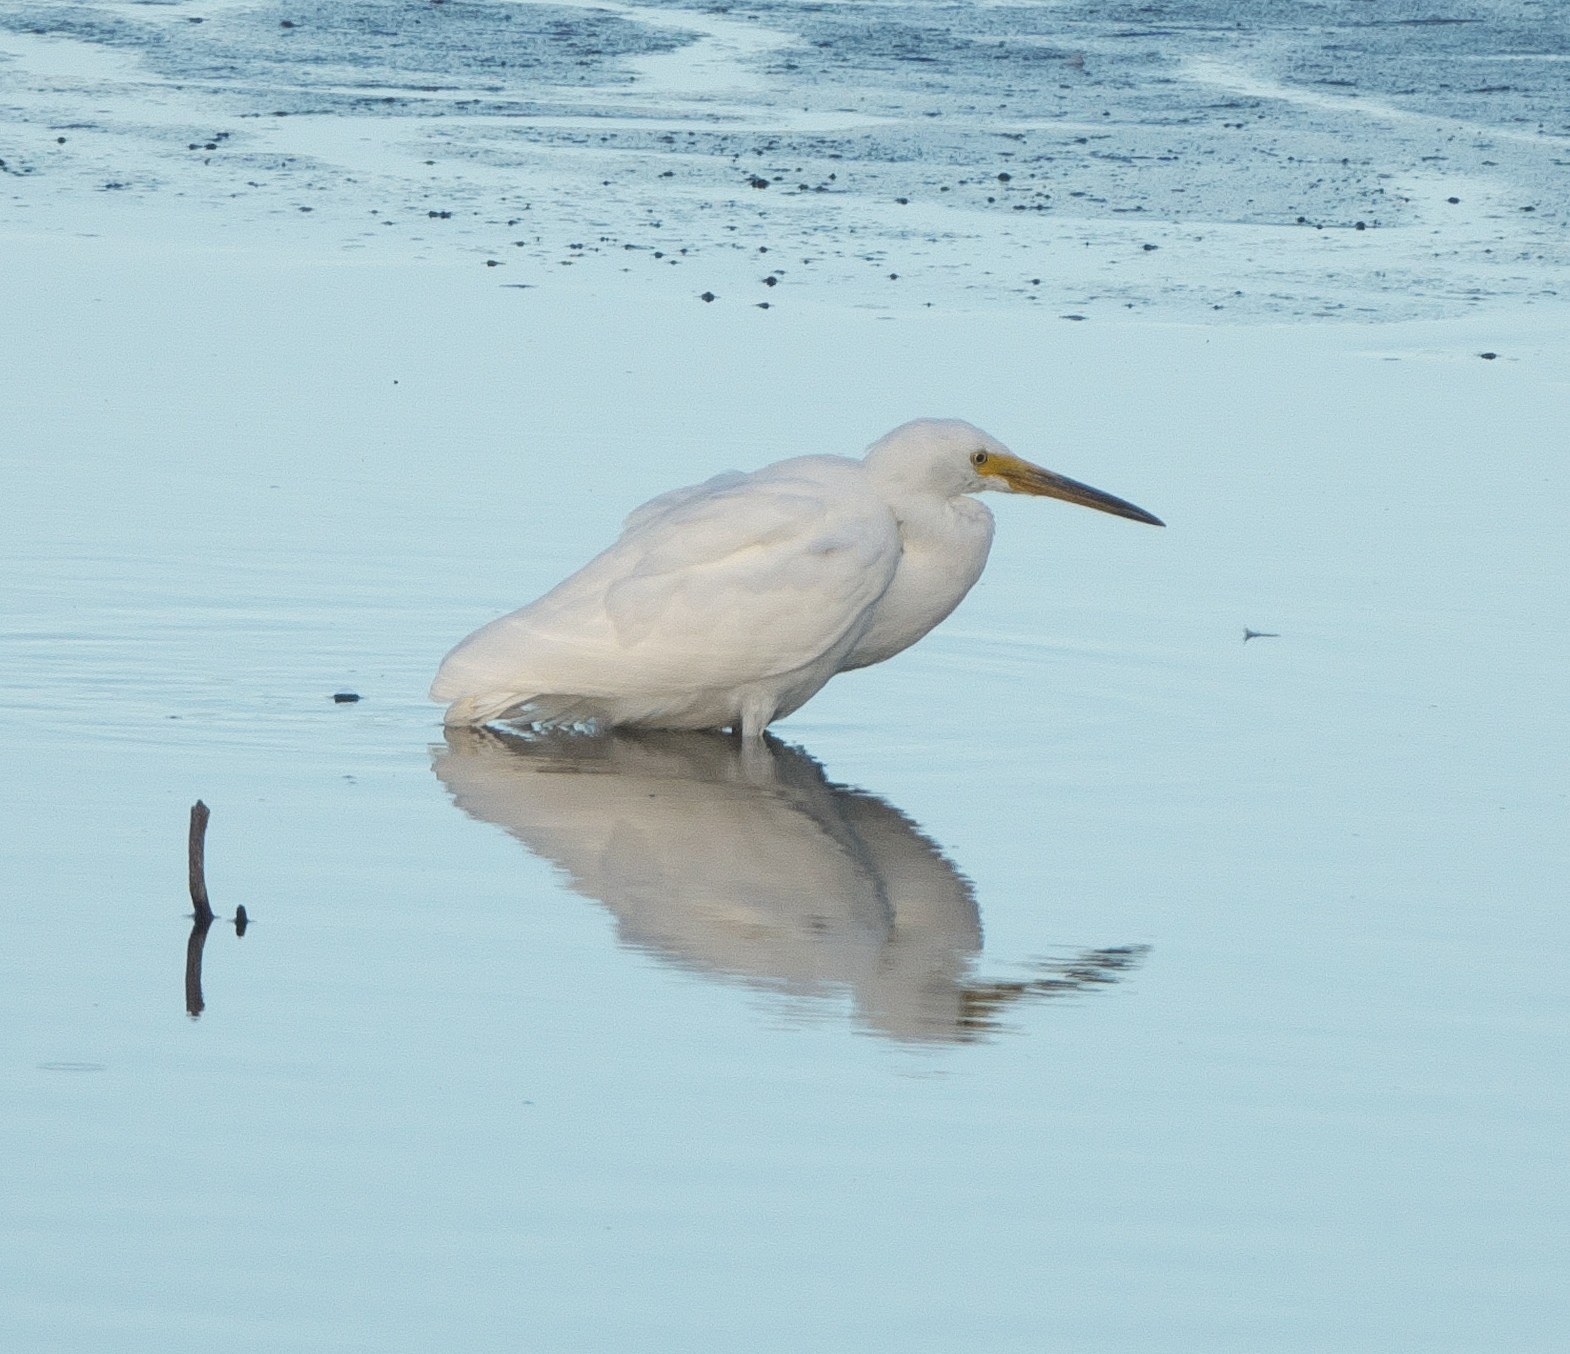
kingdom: Animalia
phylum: Chordata
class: Aves
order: Pelecaniformes
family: Ardeidae
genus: Ardea
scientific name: Ardea alba
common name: Great egret
